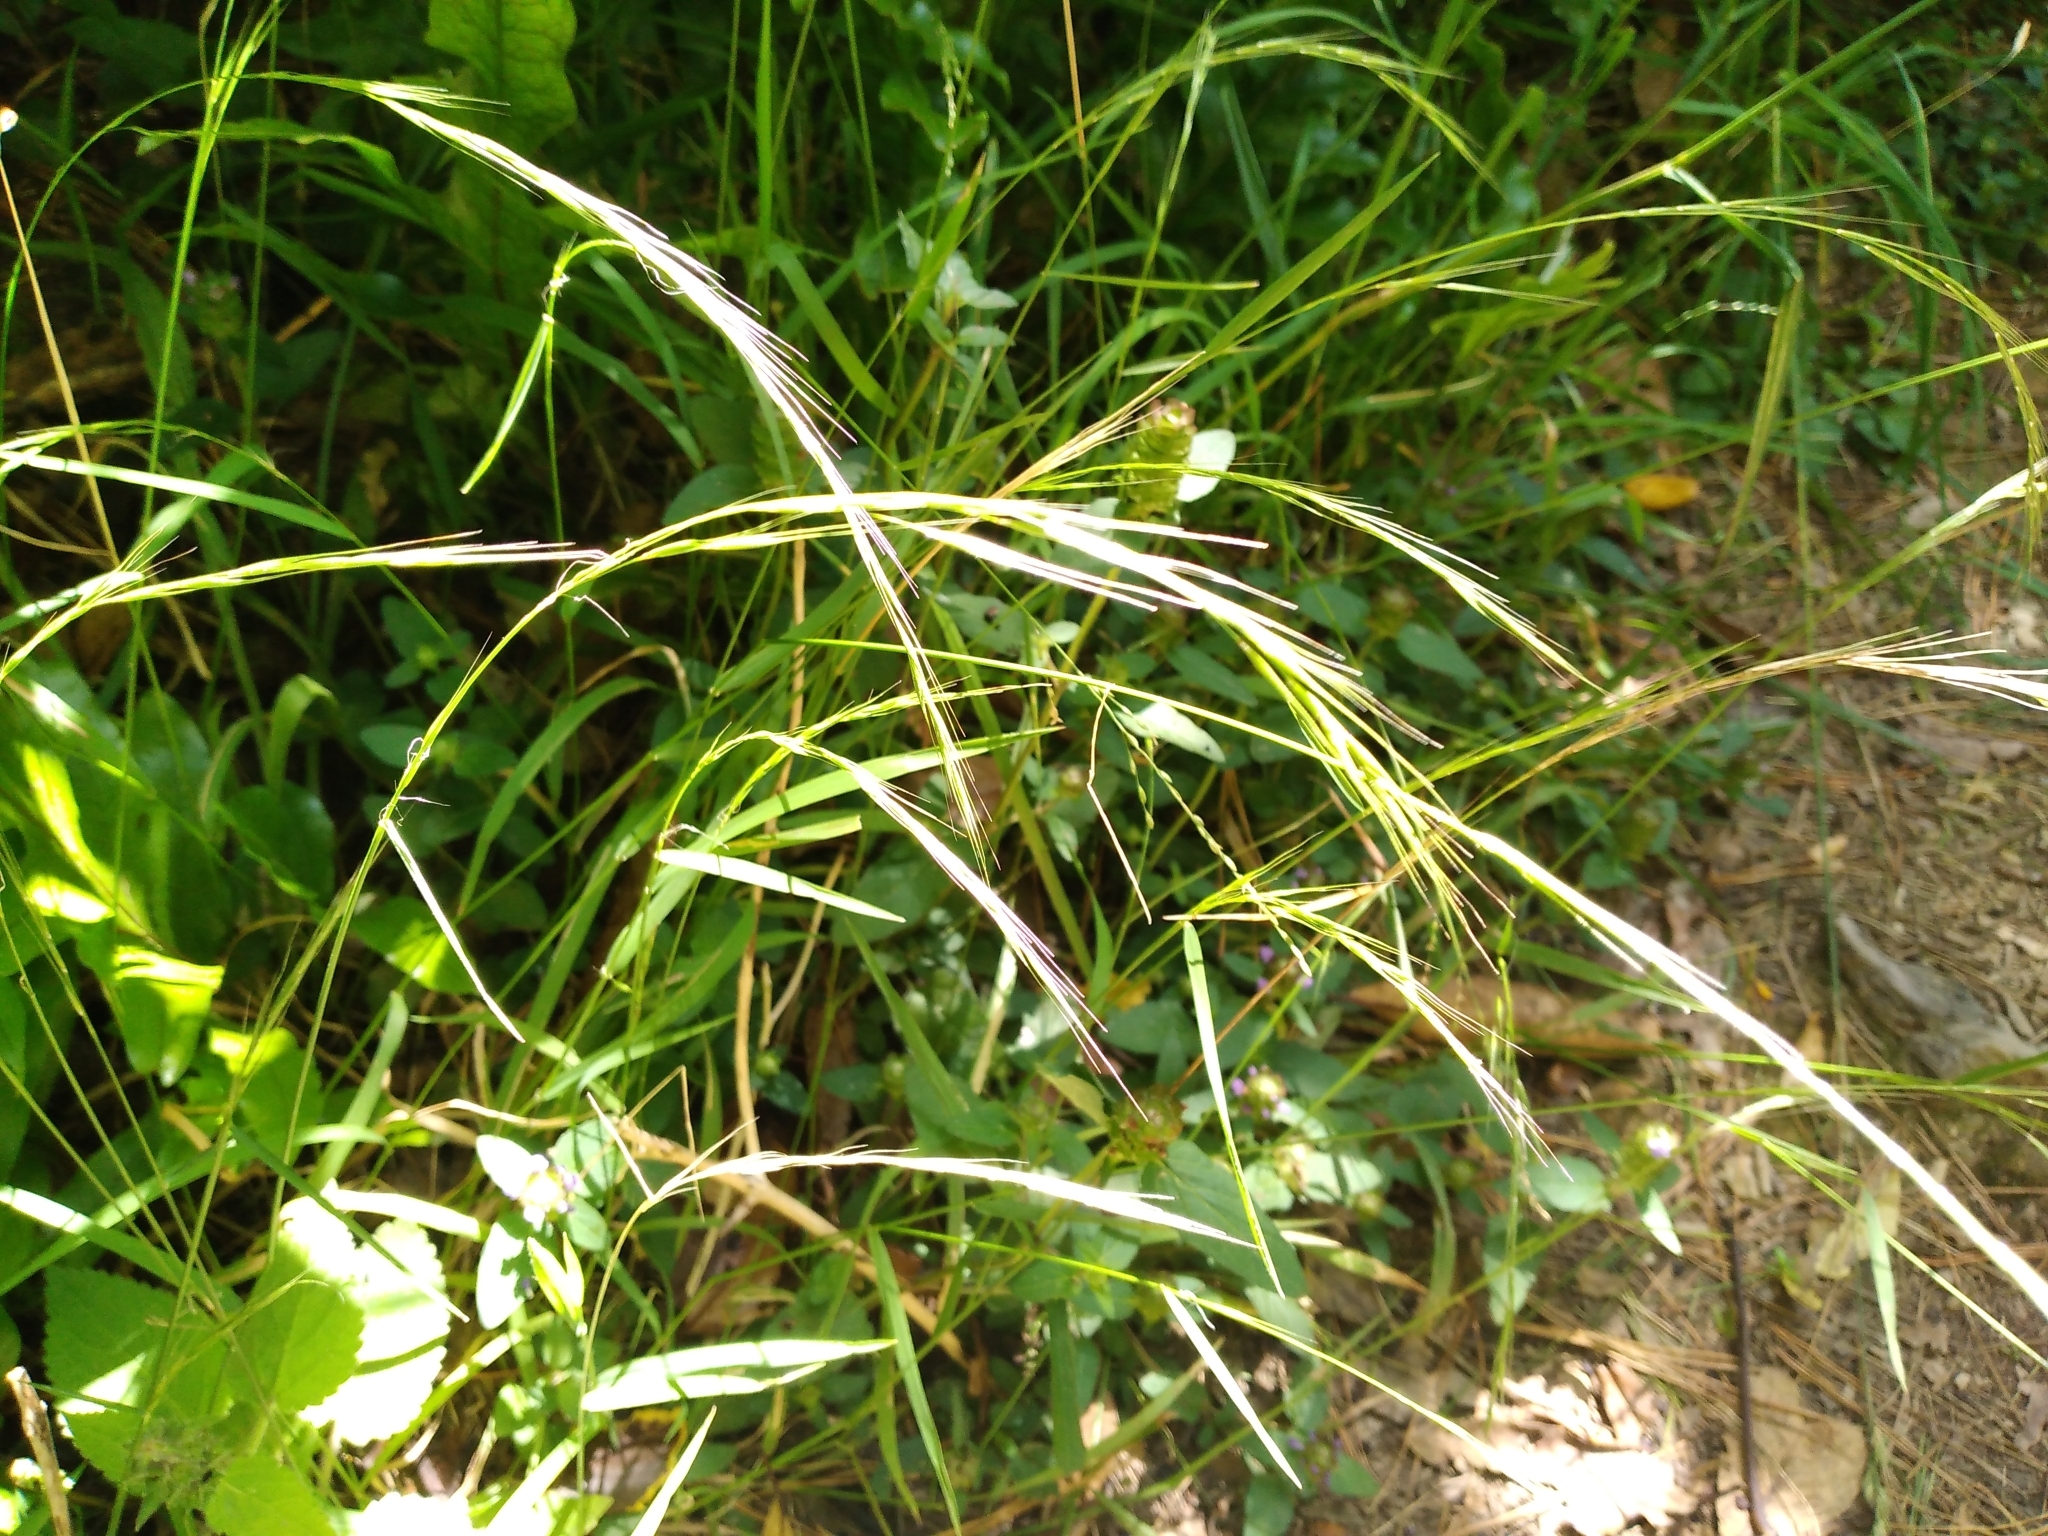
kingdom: Plantae
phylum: Tracheophyta
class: Liliopsida
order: Poales
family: Poaceae
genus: Microlaena
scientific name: Microlaena stipoides
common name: Meadow ricegrass
